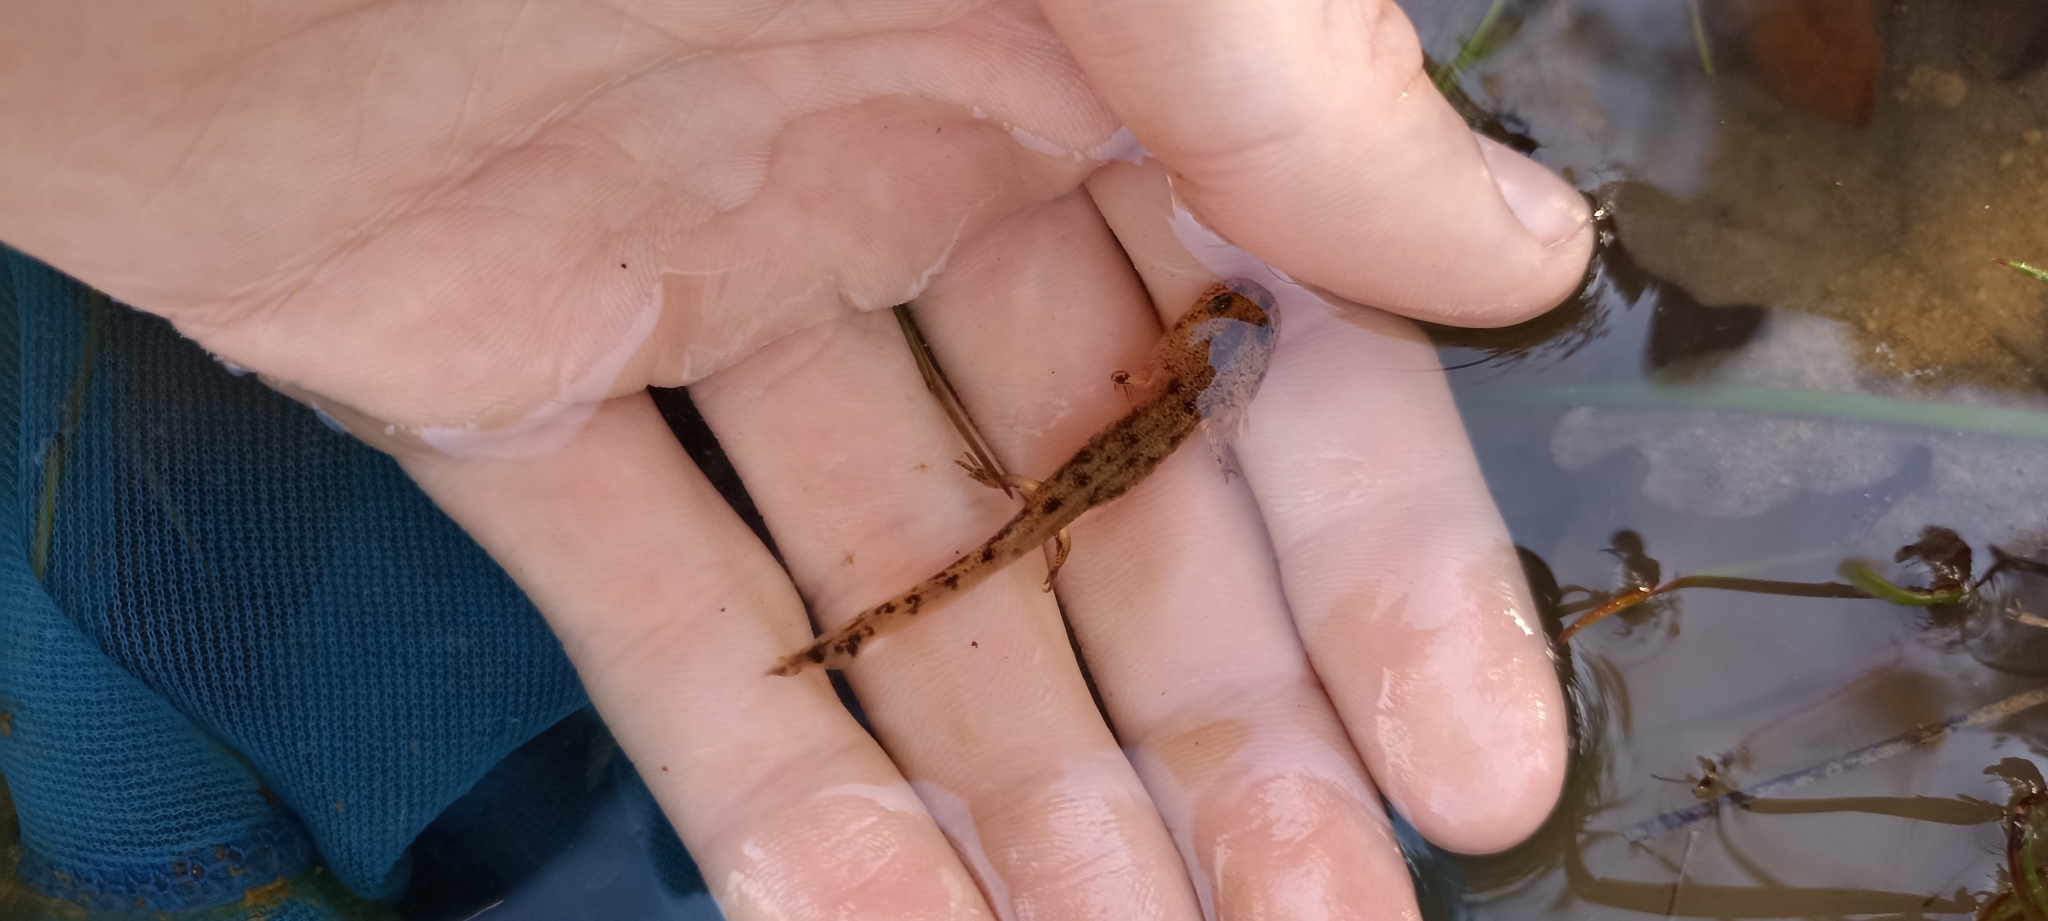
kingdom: Animalia
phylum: Chordata
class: Amphibia
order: Caudata
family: Salamandridae
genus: Salamandra
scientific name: Salamandra salamandra
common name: Fire salamander
